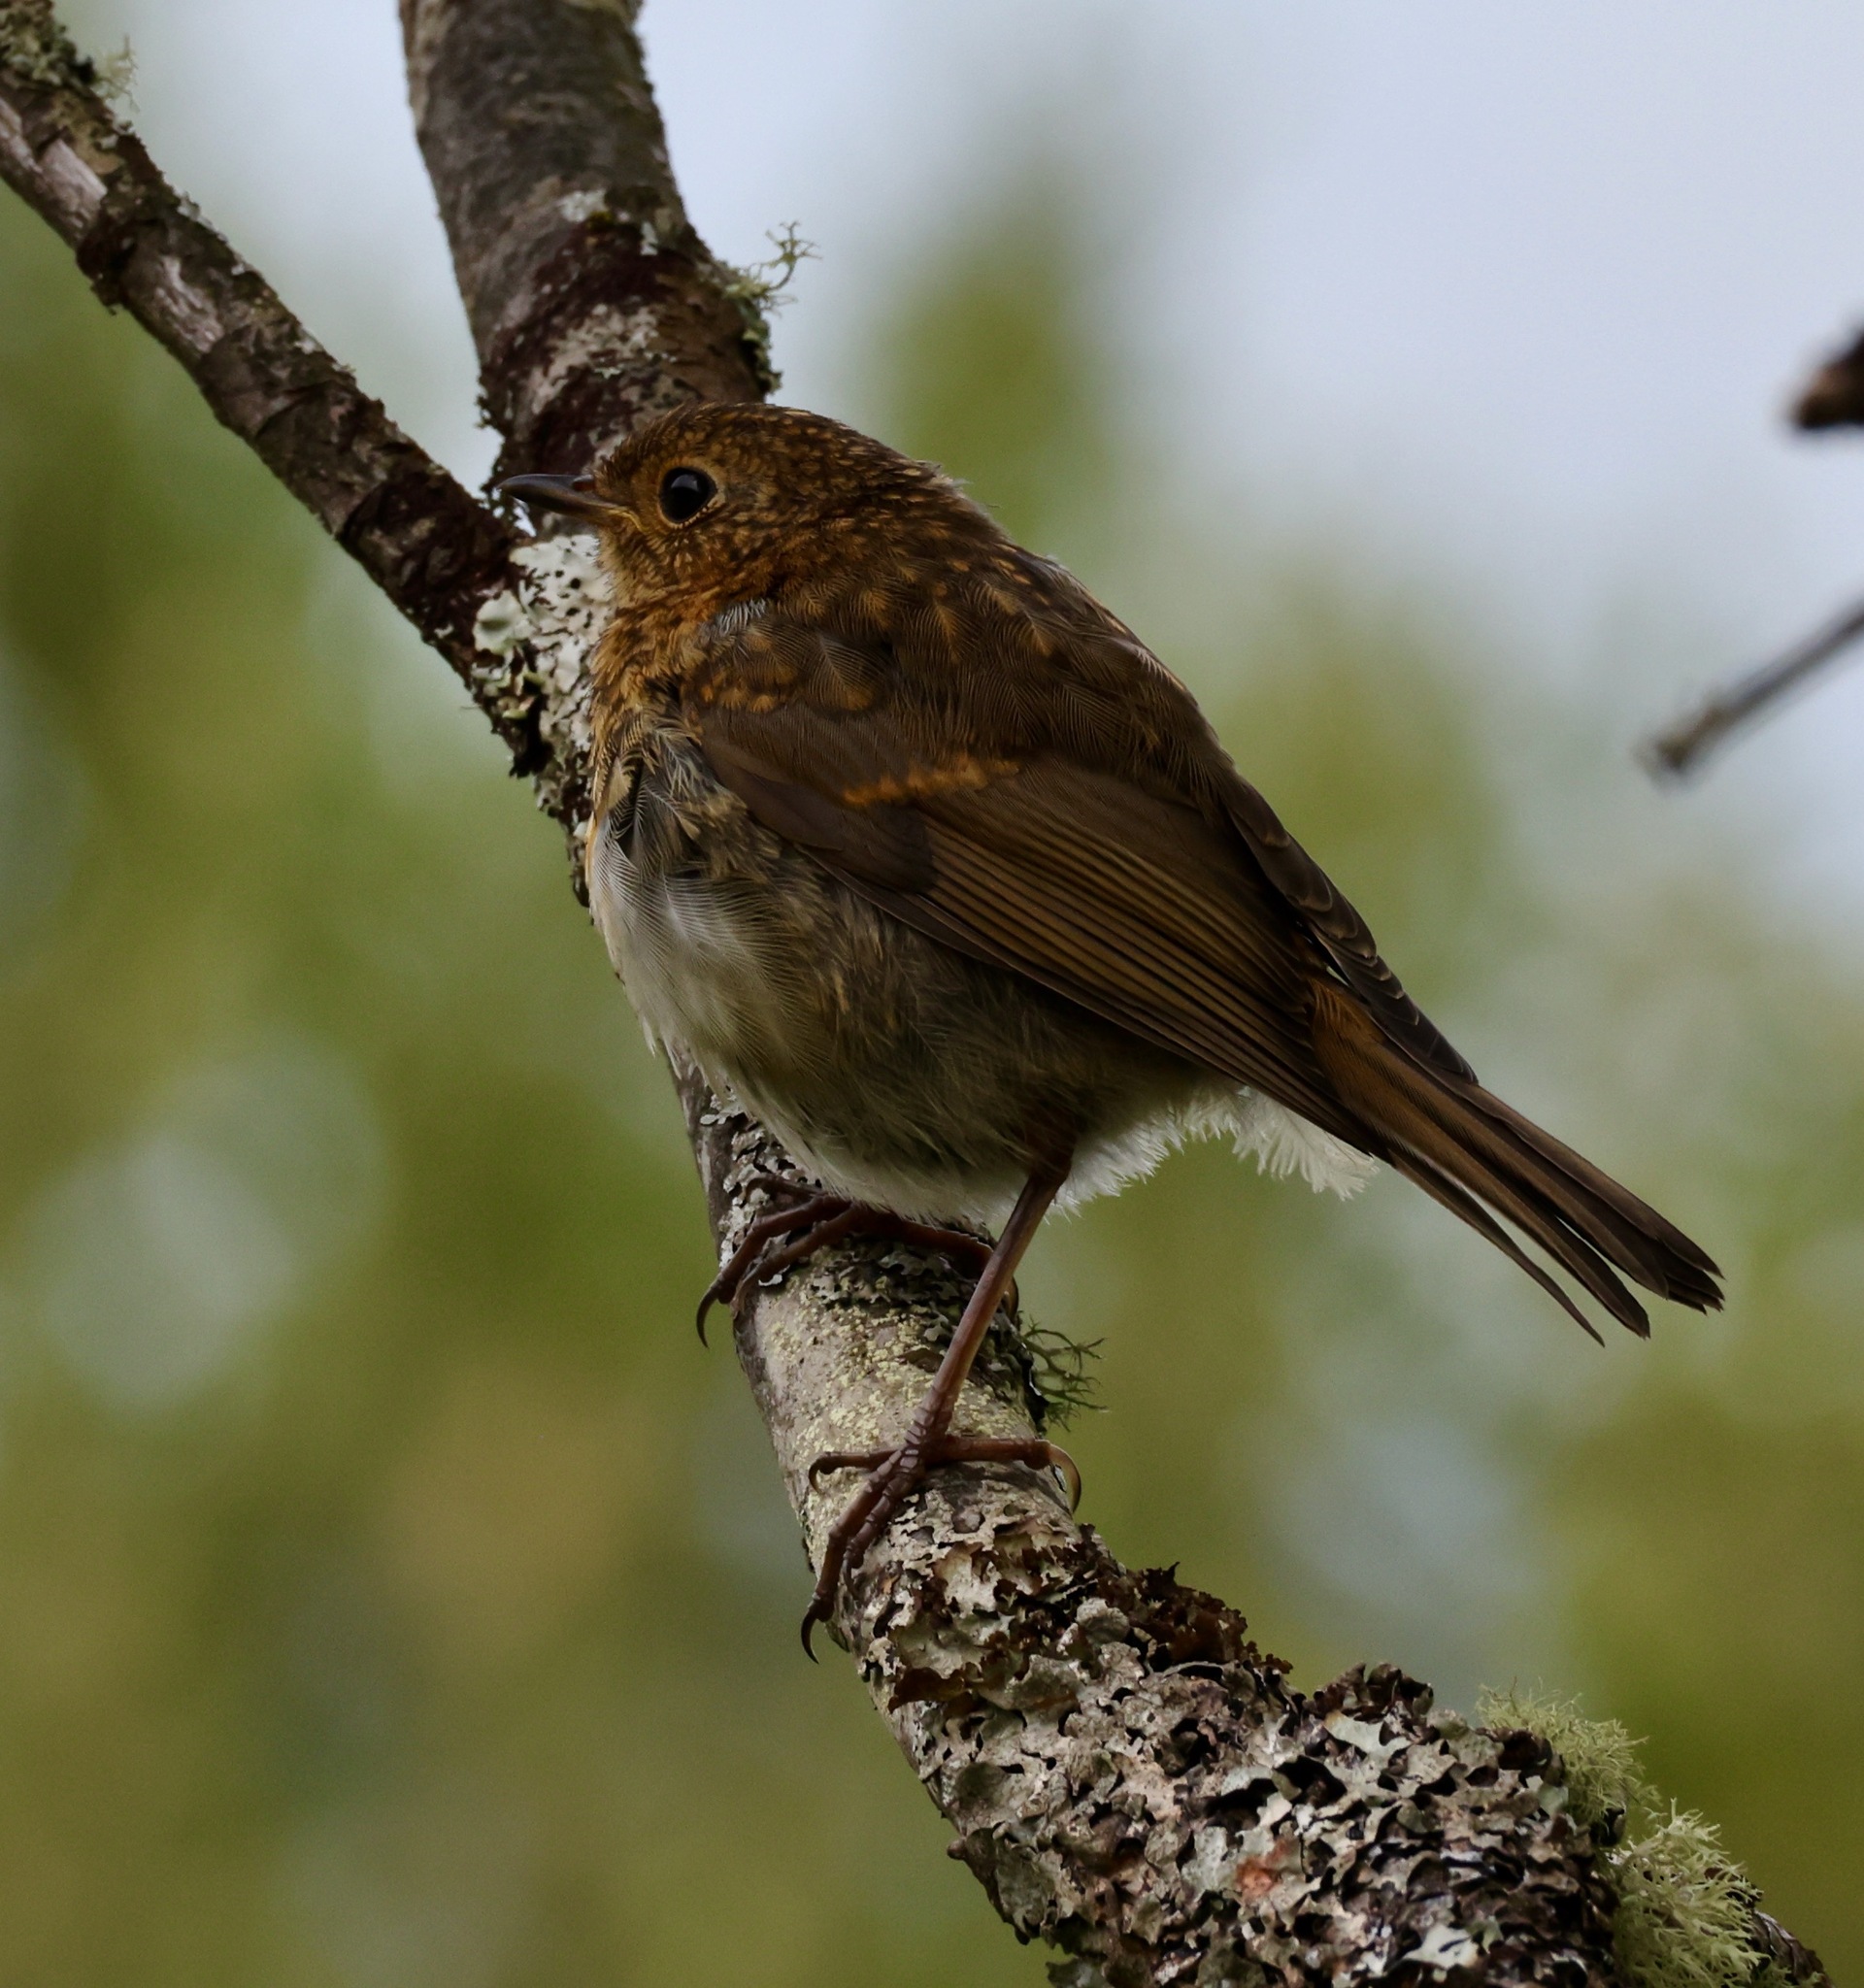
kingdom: Animalia
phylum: Chordata
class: Aves
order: Passeriformes
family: Muscicapidae
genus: Erithacus
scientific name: Erithacus rubecula
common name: European robin
